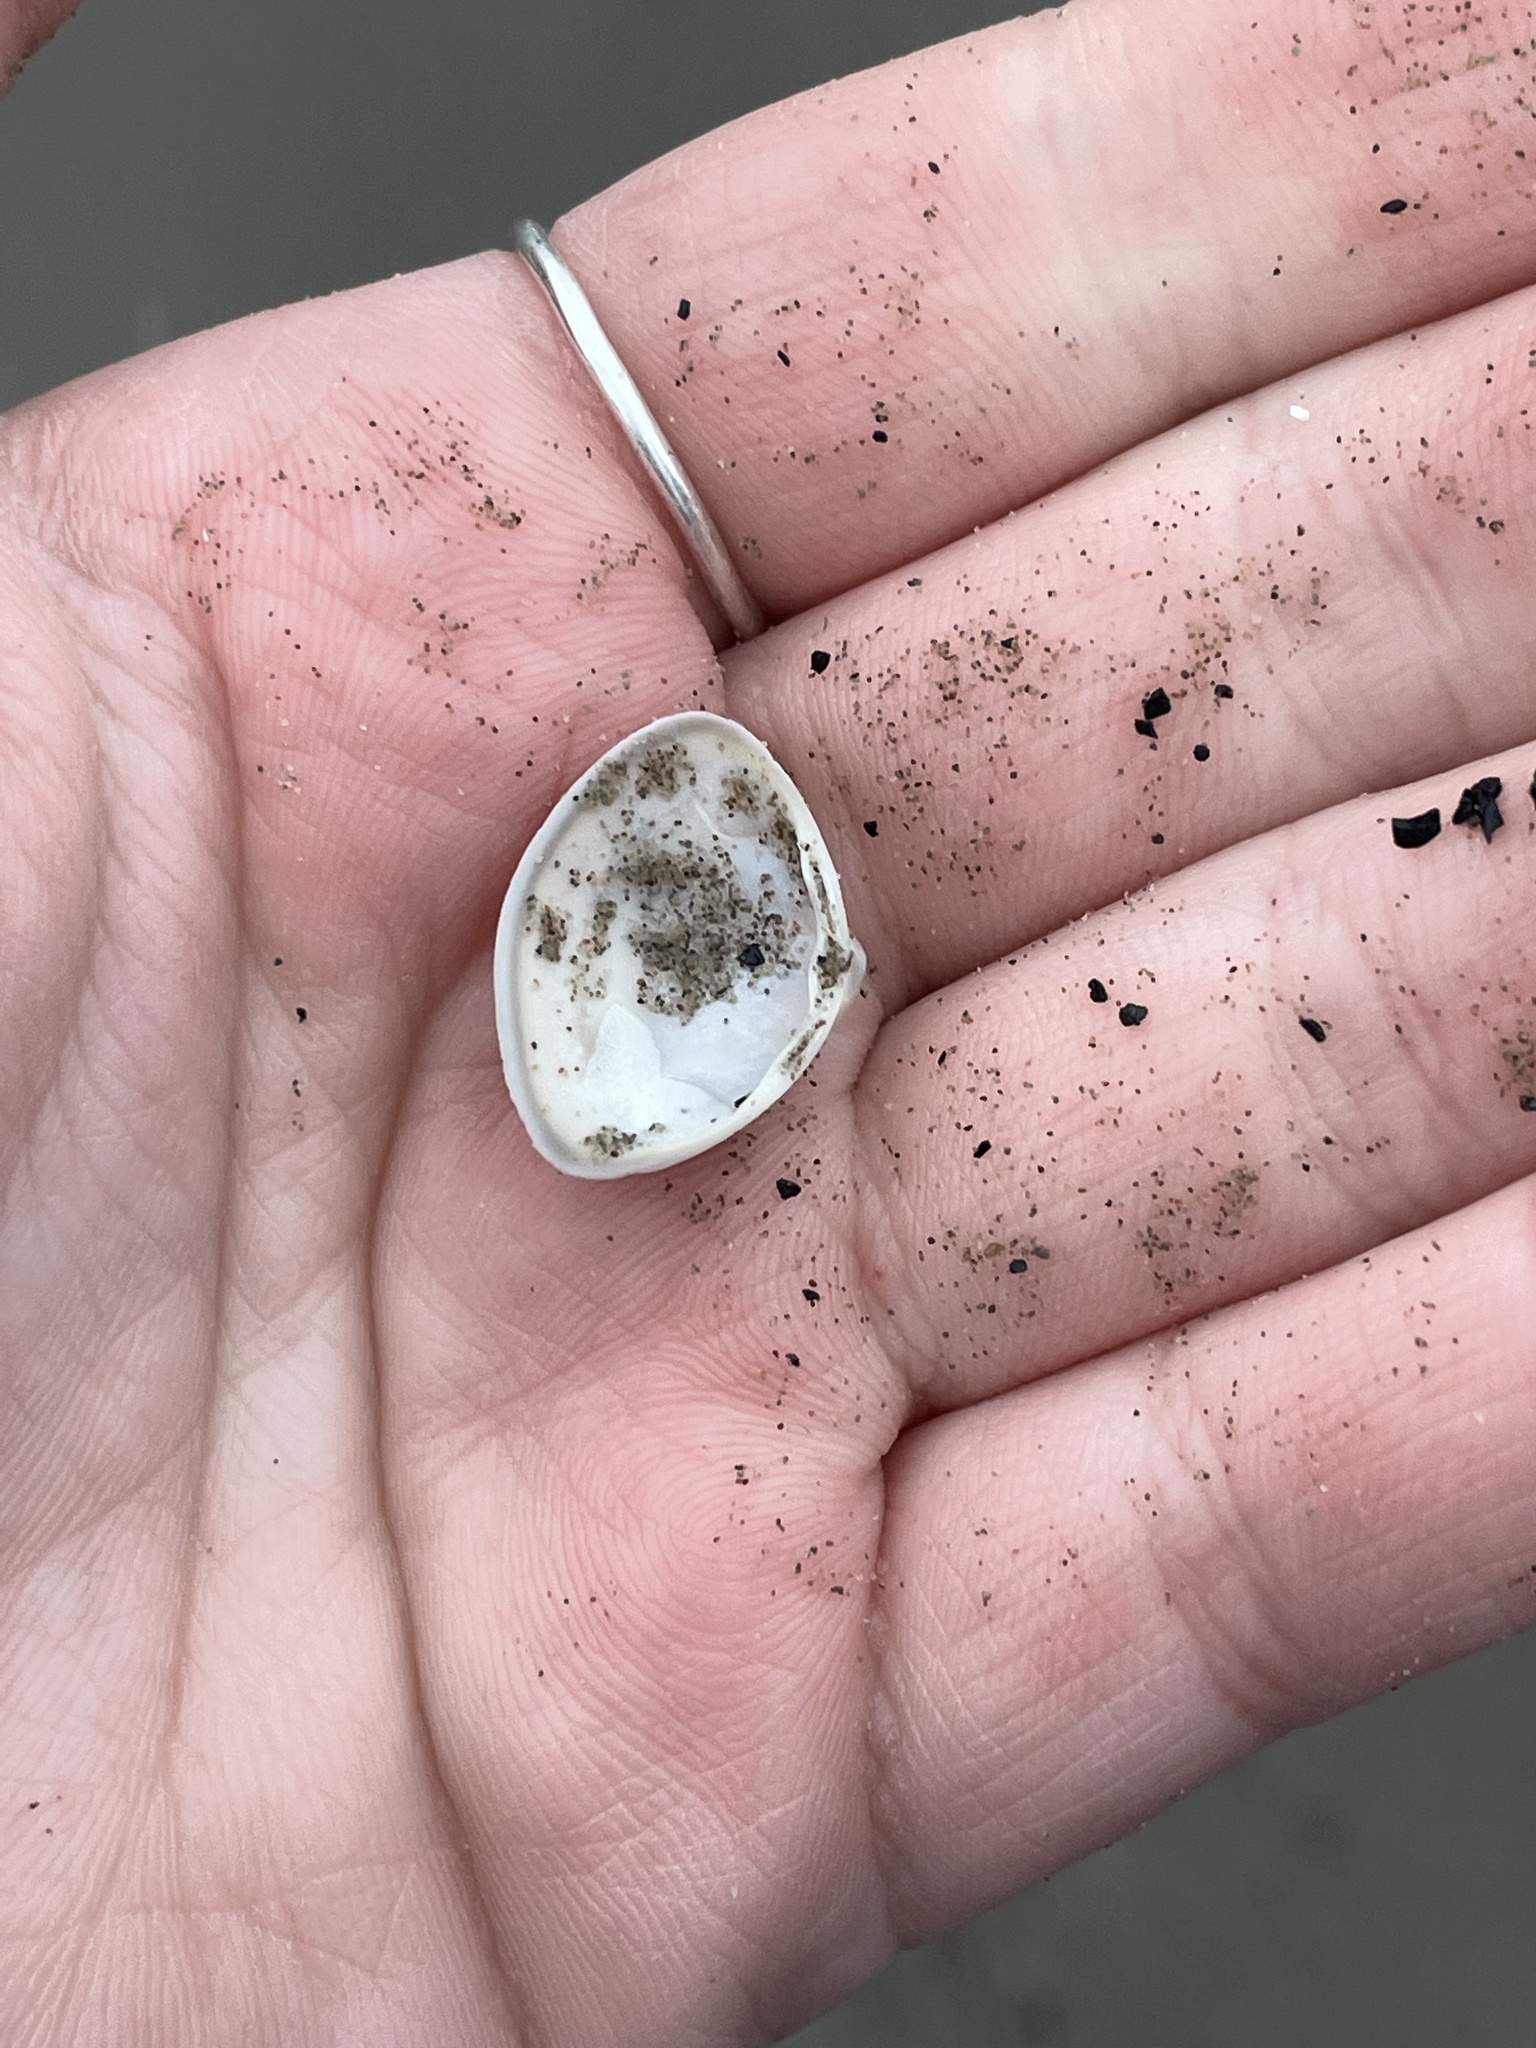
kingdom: Animalia
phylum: Mollusca
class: Bivalvia
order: Venerida
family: Mactridae
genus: Spisula
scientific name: Spisula solidissima
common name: Atlantic surf clam
